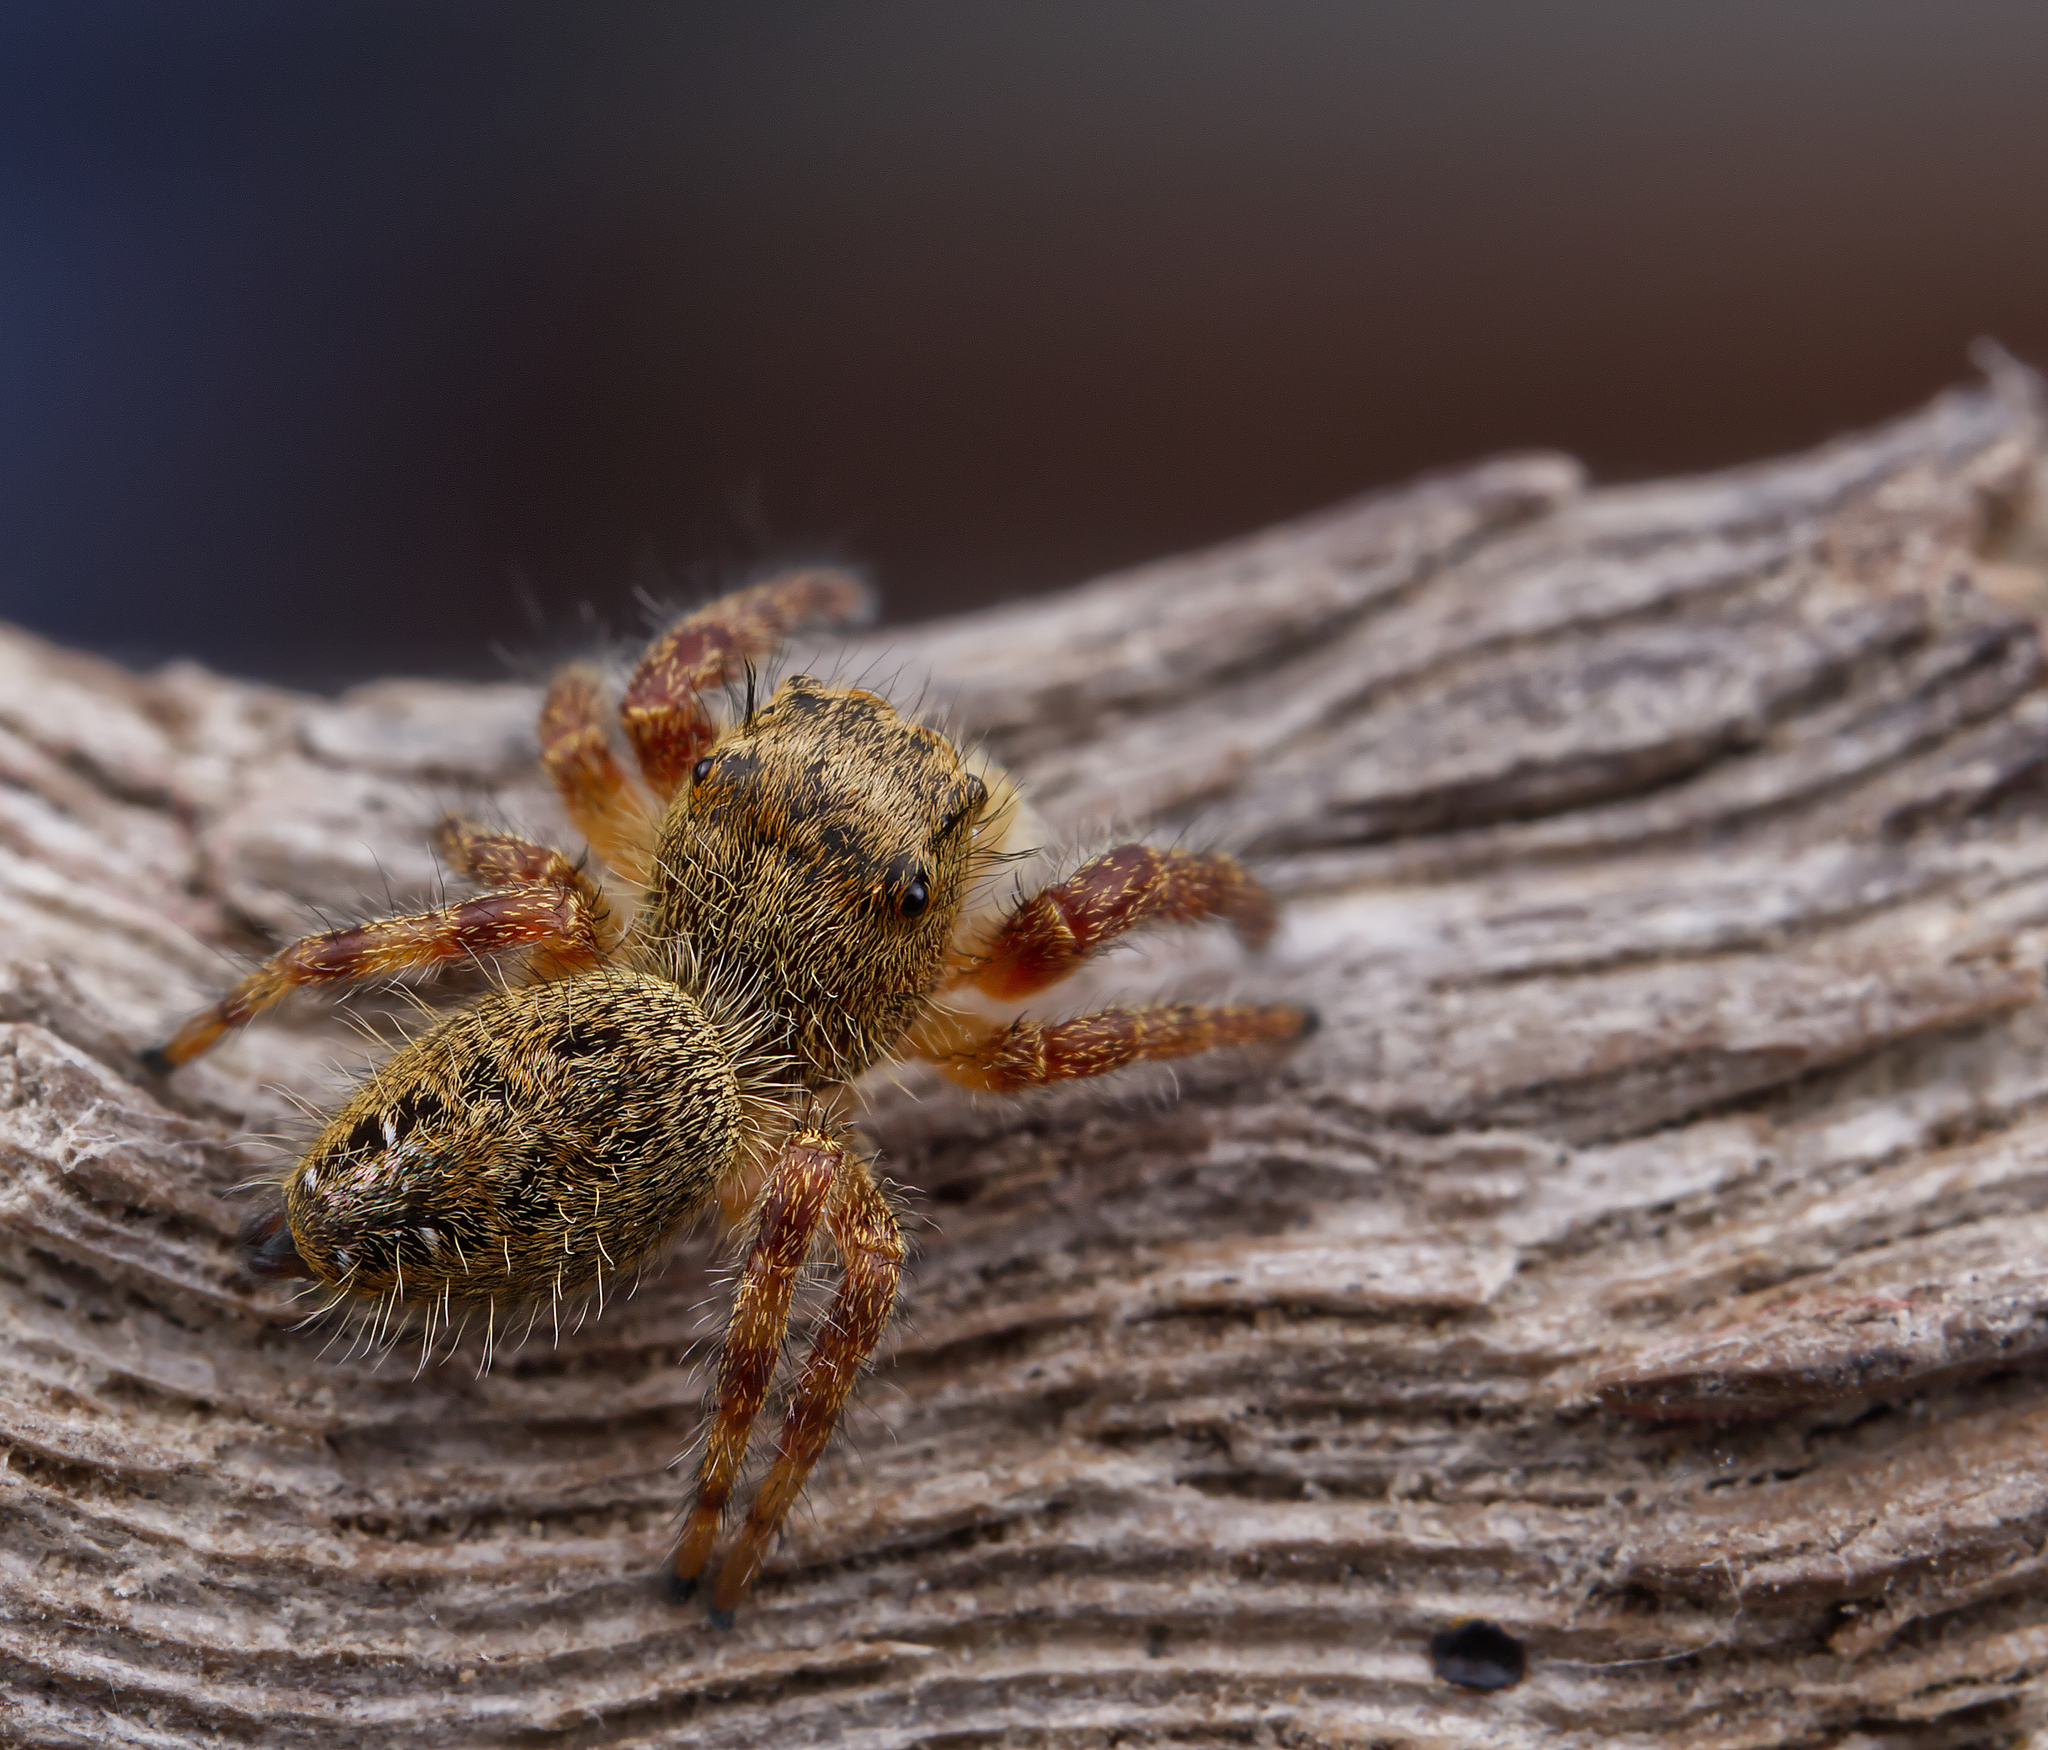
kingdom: Animalia
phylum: Arthropoda
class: Arachnida
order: Araneae
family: Salticidae
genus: Phidippus
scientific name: Phidippus princeps
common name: Grayish jumping spider
